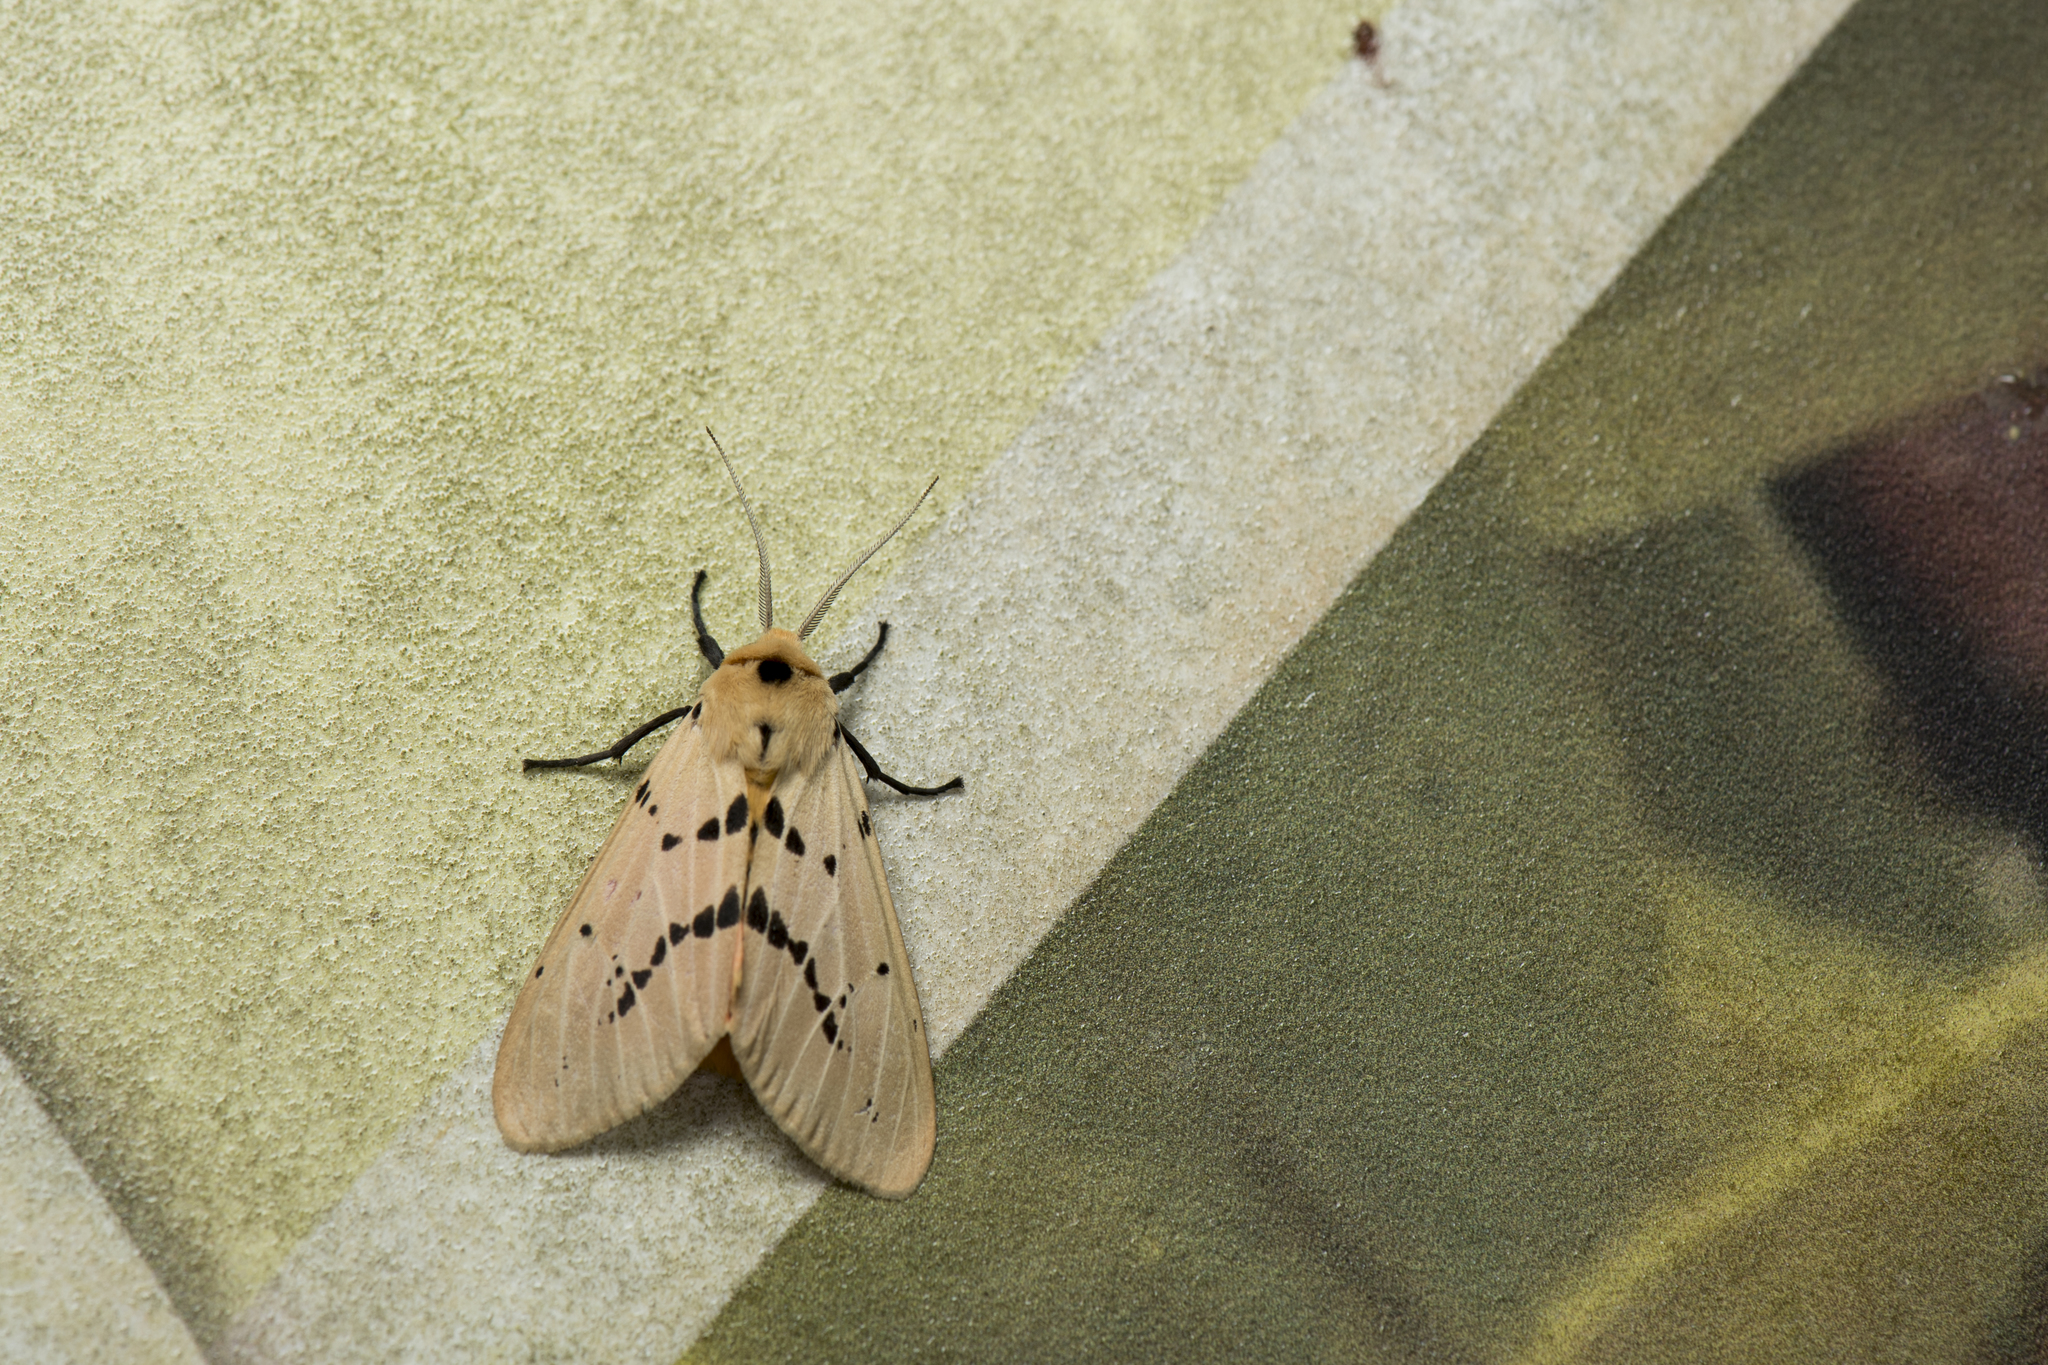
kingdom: Animalia
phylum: Arthropoda
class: Insecta
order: Lepidoptera
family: Erebidae
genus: Spilarctia
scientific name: Spilarctia postrubida
